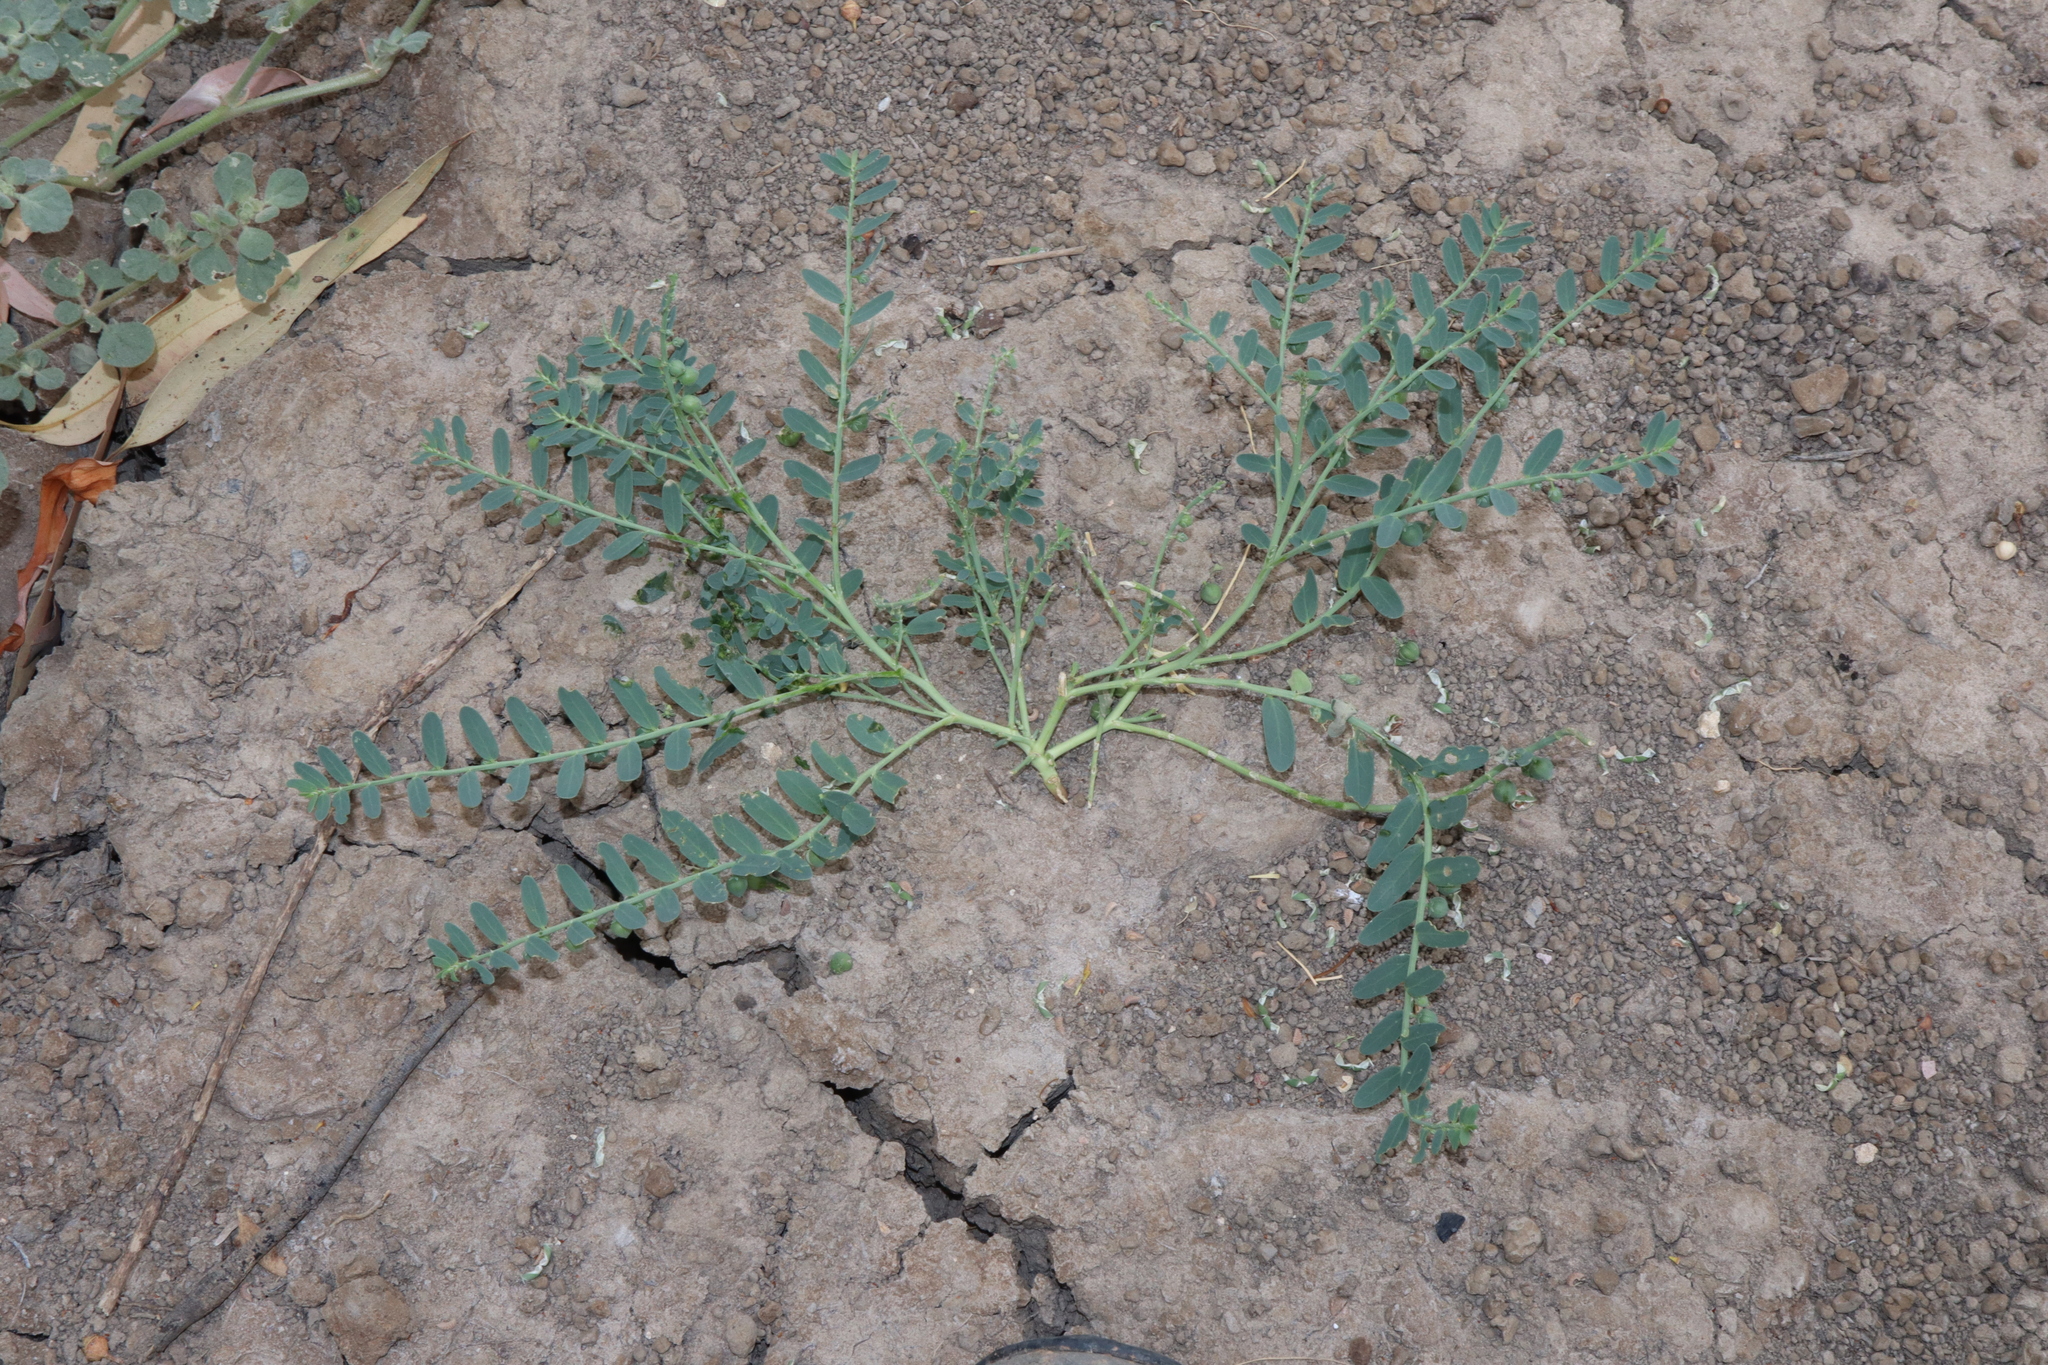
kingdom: Plantae
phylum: Tracheophyta
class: Magnoliopsida
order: Malpighiales
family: Phyllanthaceae
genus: Synostemon
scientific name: Synostemon trachyspermus
